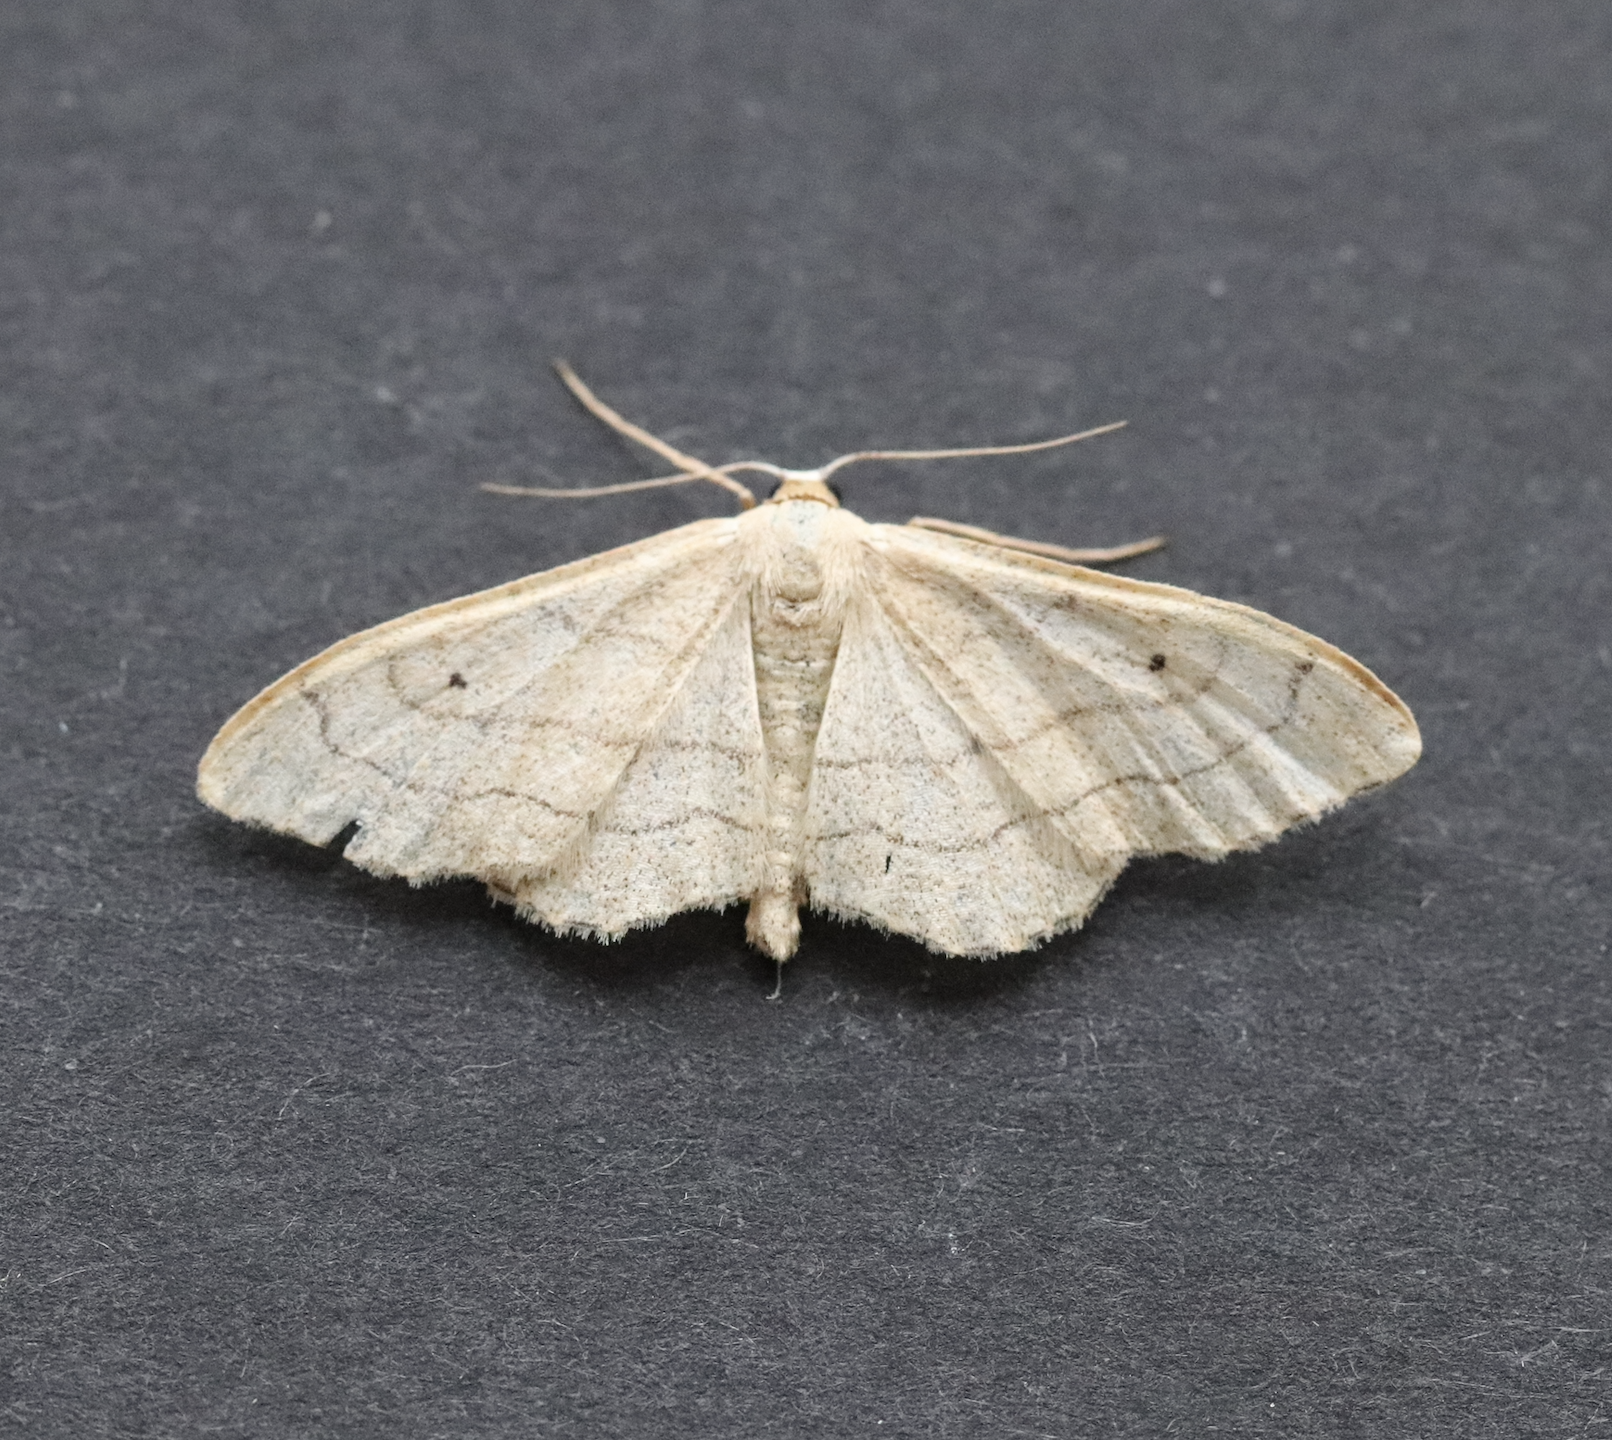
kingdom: Animalia
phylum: Arthropoda
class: Insecta
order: Lepidoptera
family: Geometridae
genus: Idaea
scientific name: Idaea aversata
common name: Riband wave
